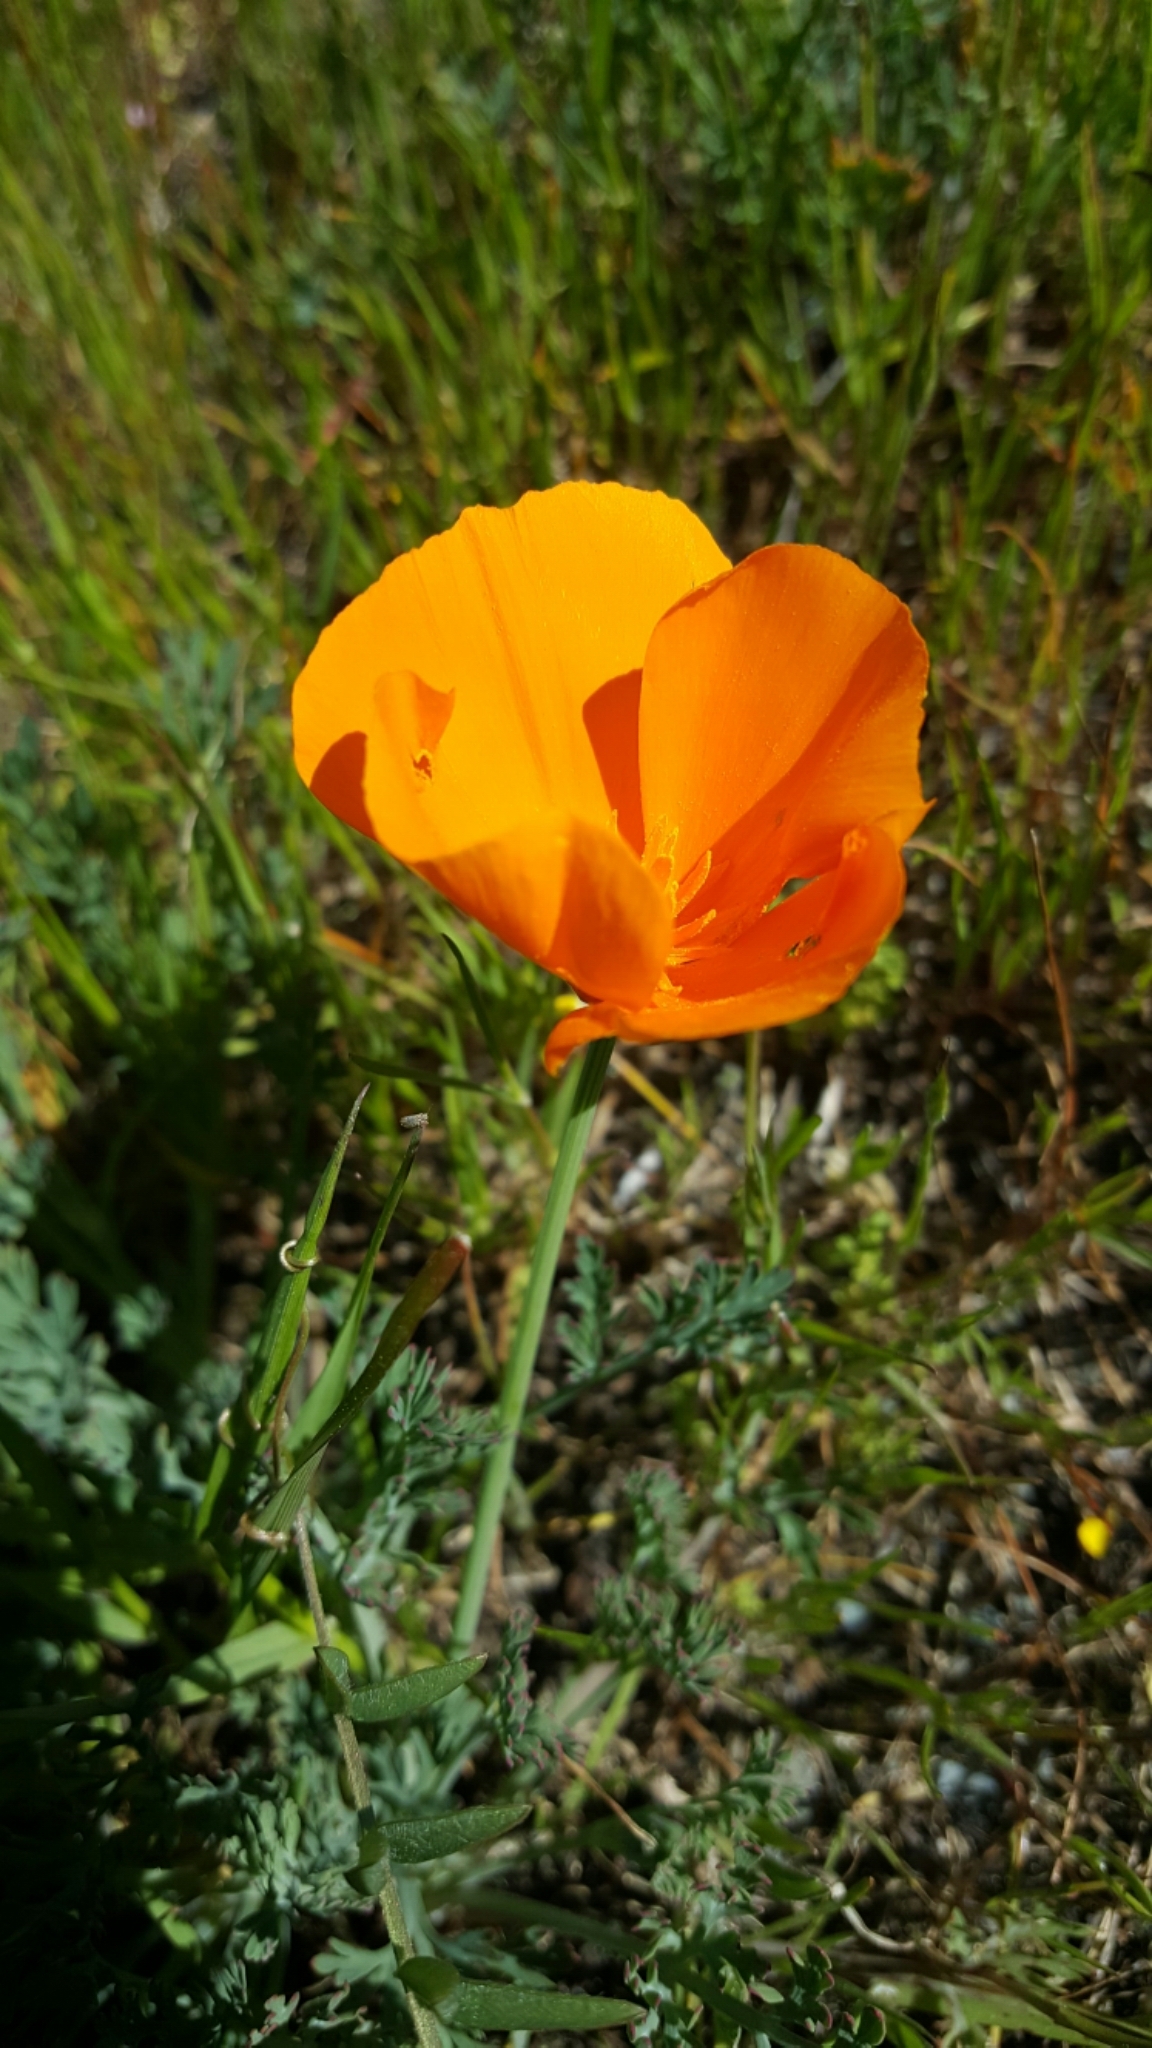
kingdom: Plantae
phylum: Tracheophyta
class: Magnoliopsida
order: Ranunculales
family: Papaveraceae
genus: Eschscholzia
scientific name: Eschscholzia californica
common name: California poppy
